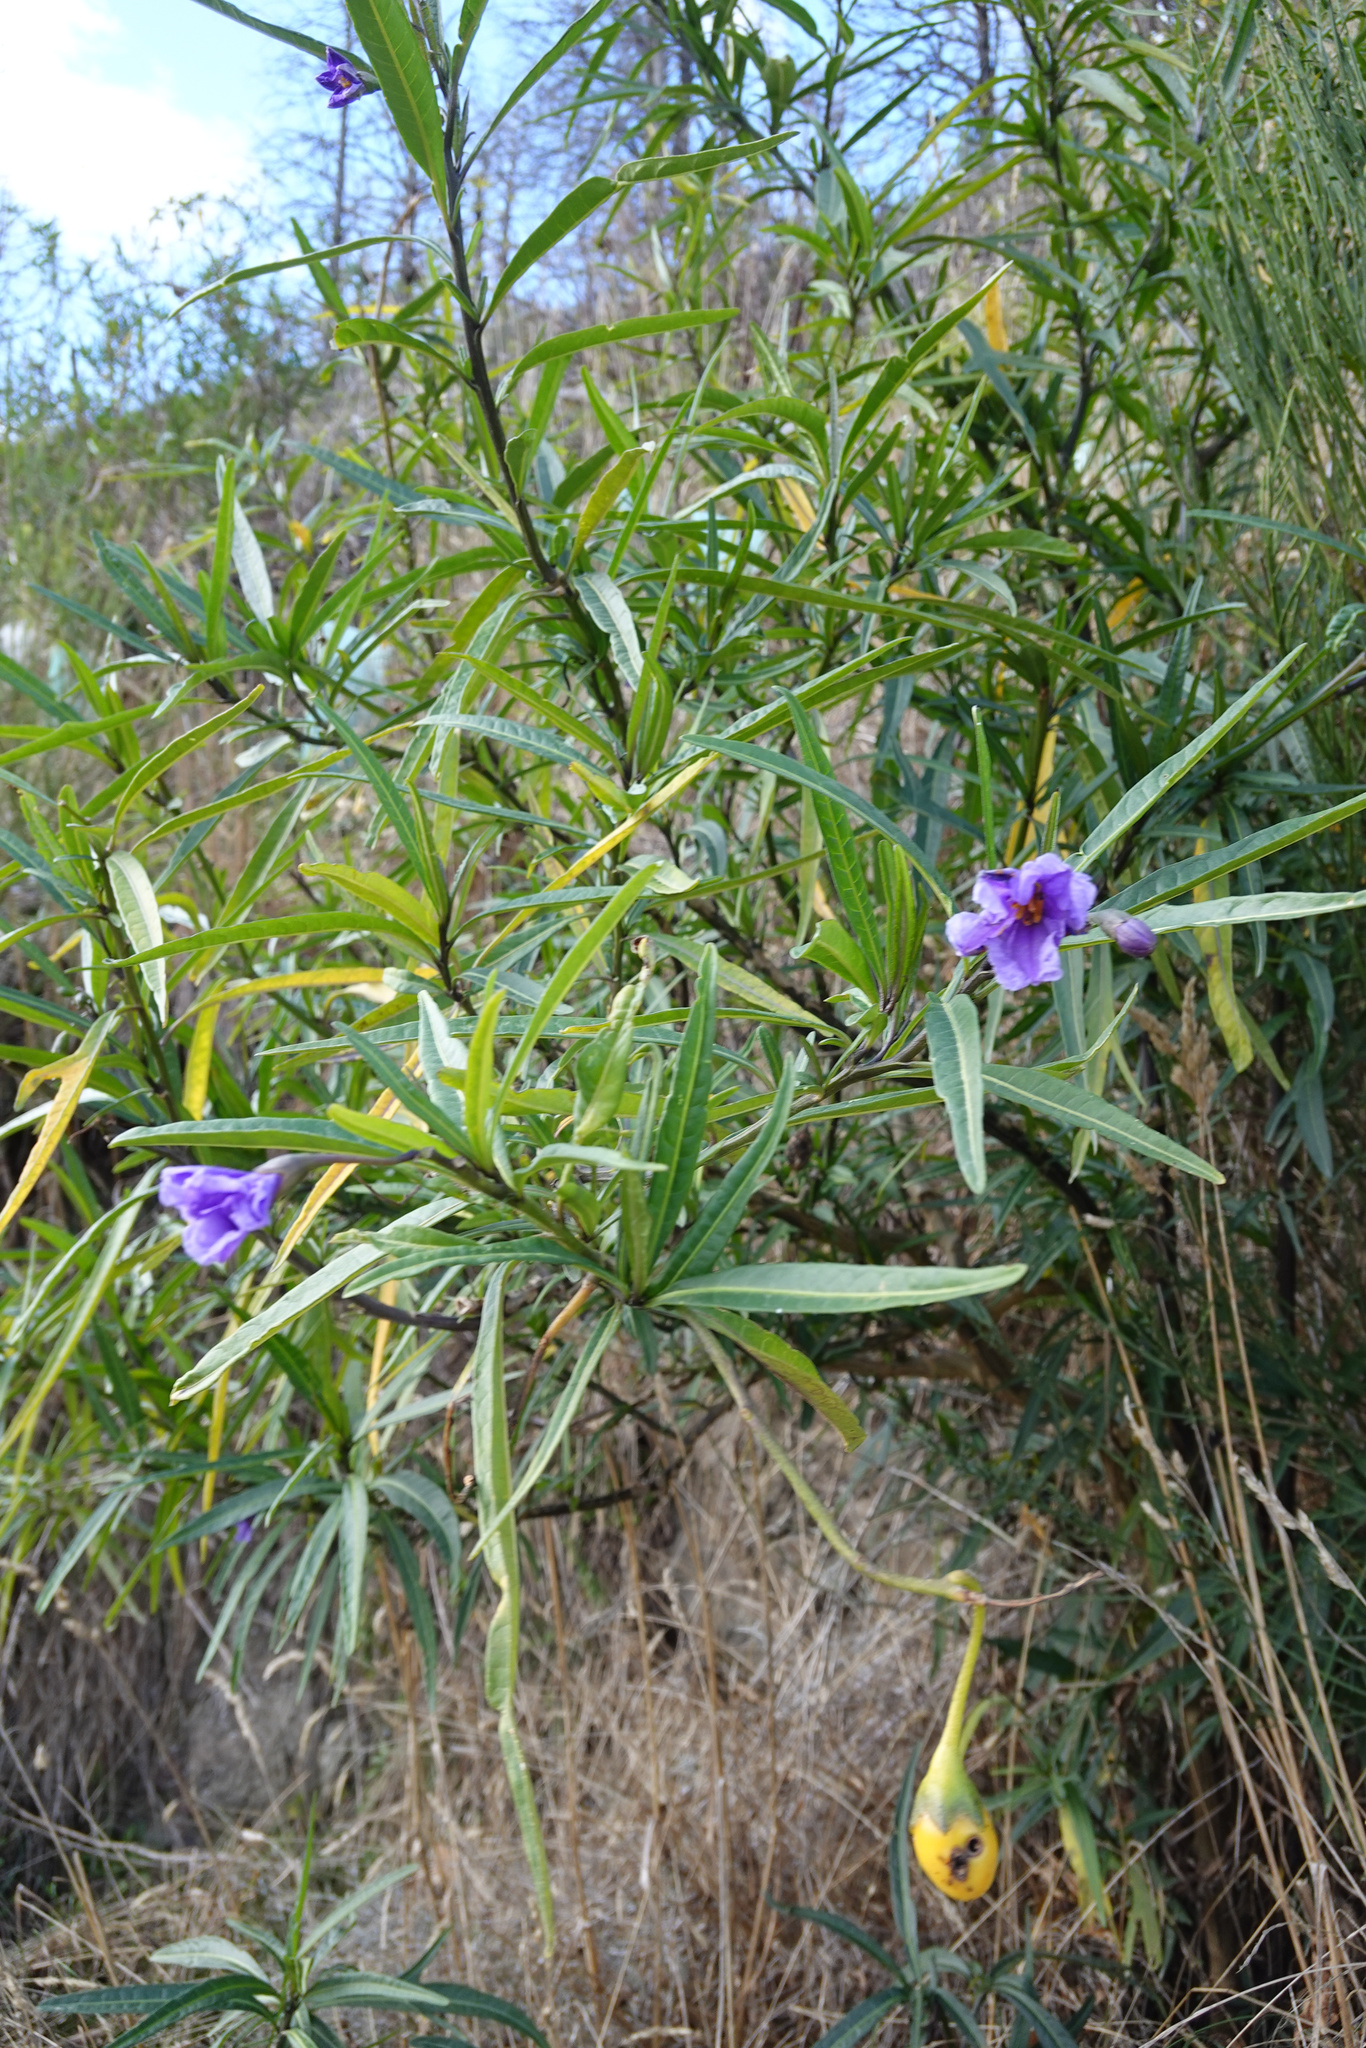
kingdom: Plantae
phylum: Tracheophyta
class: Magnoliopsida
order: Solanales
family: Solanaceae
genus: Solanum
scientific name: Solanum laciniatum
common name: Kangaroo-apple
